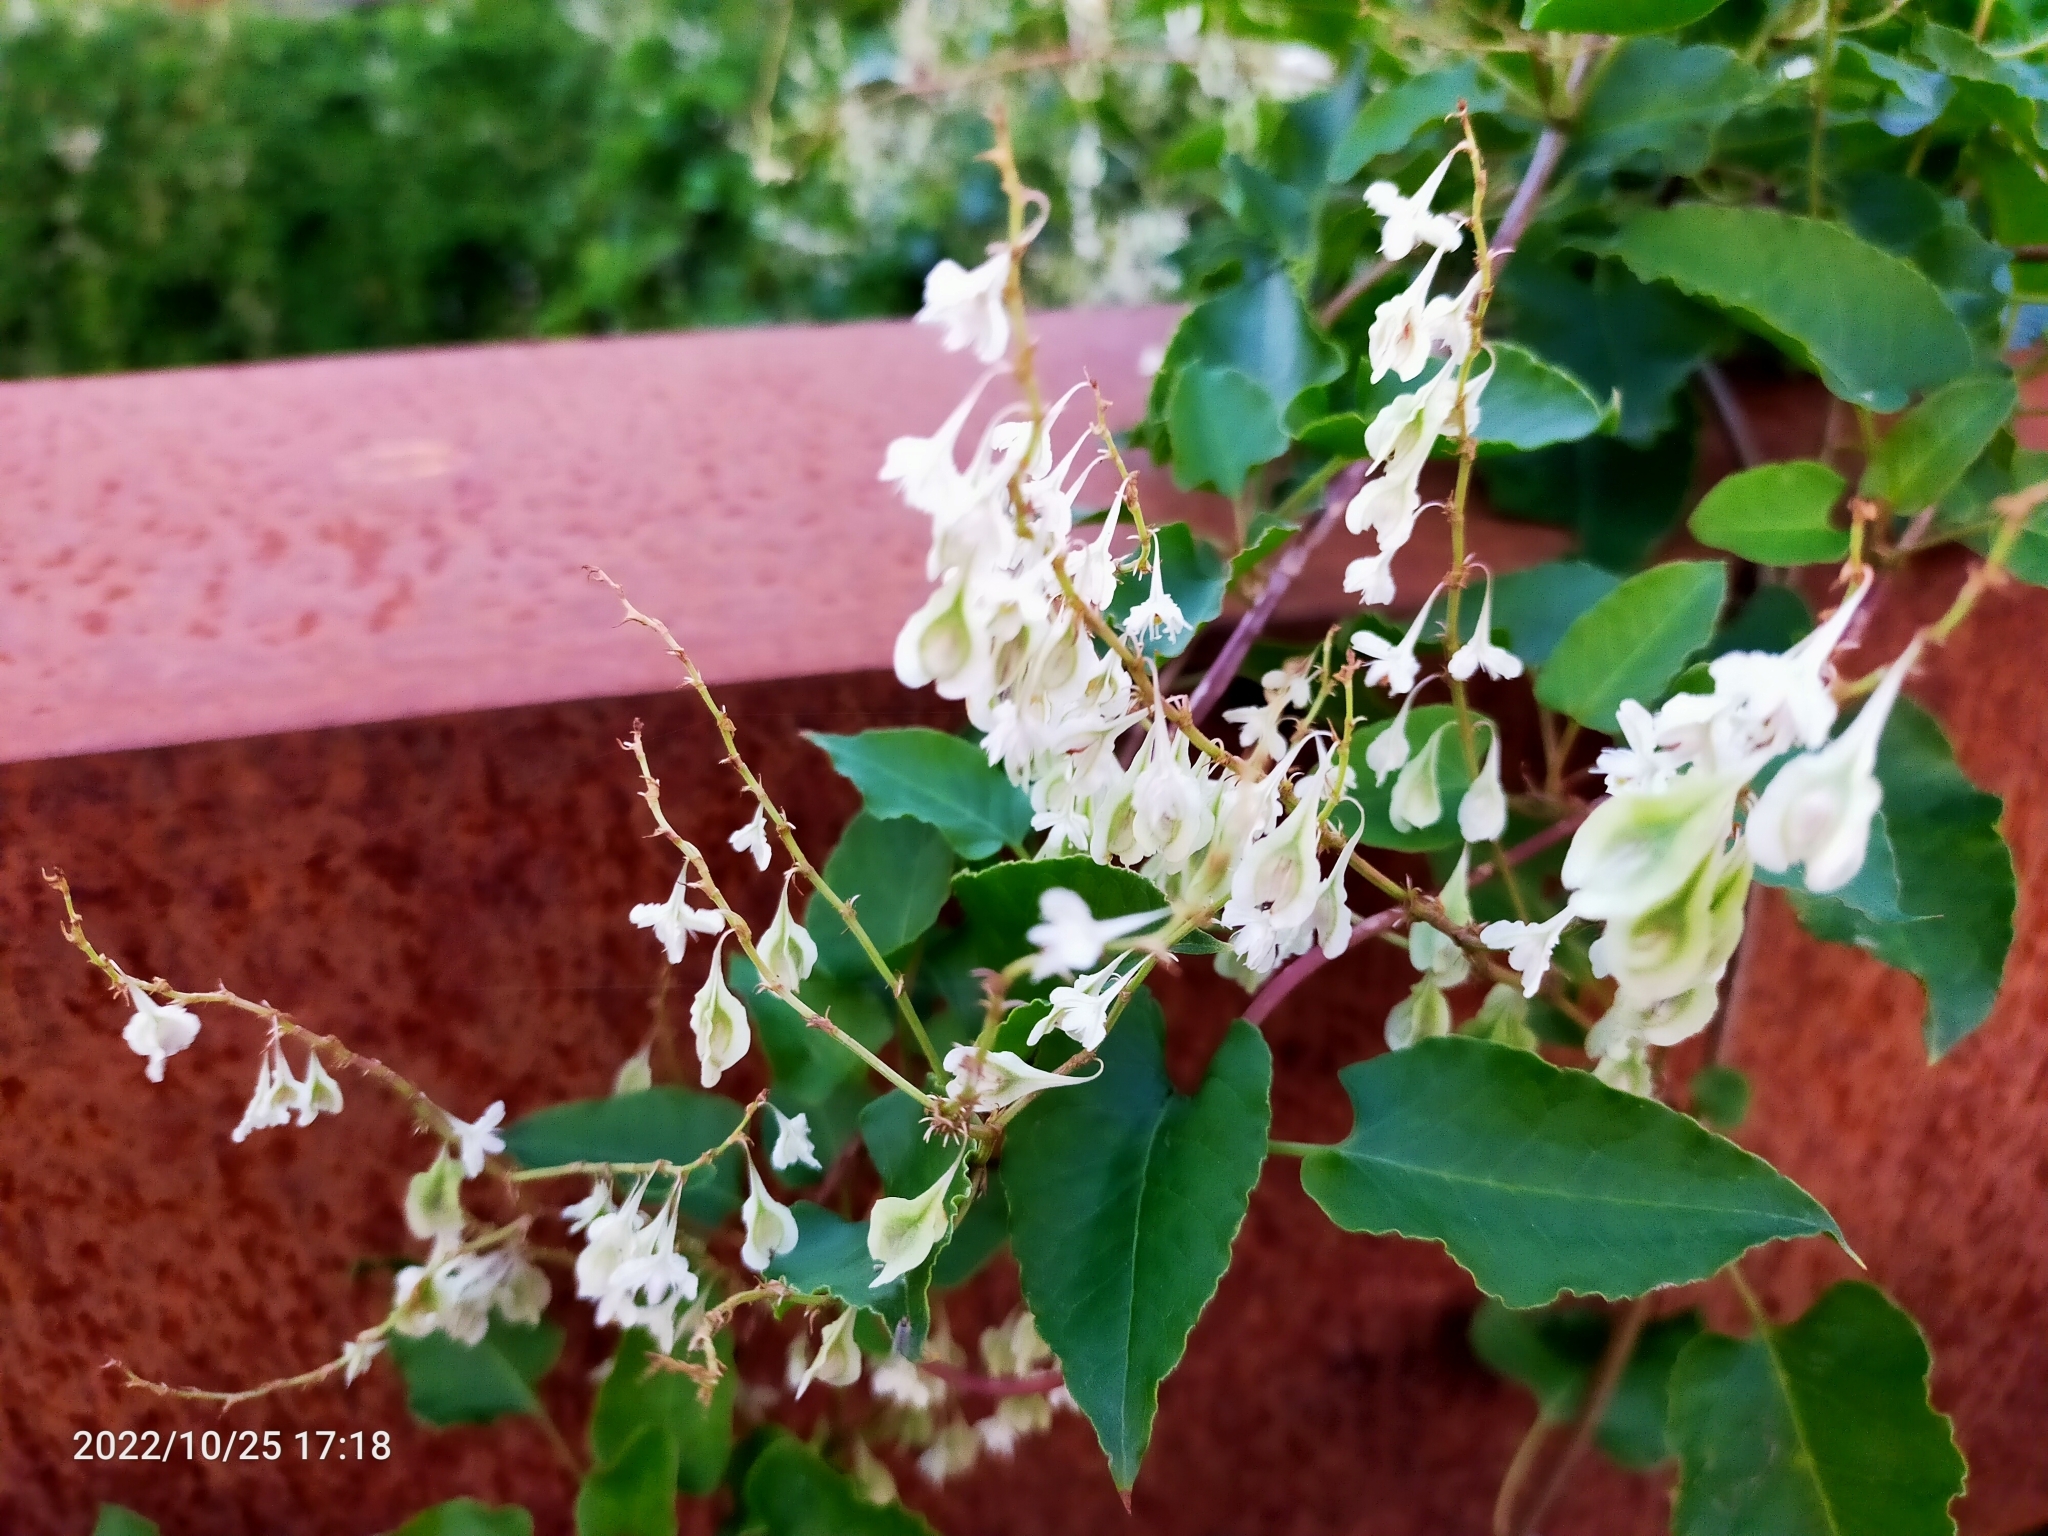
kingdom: Plantae
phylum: Tracheophyta
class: Magnoliopsida
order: Caryophyllales
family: Polygonaceae
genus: Fallopia
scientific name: Fallopia baldschuanica
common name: Russian-vine
